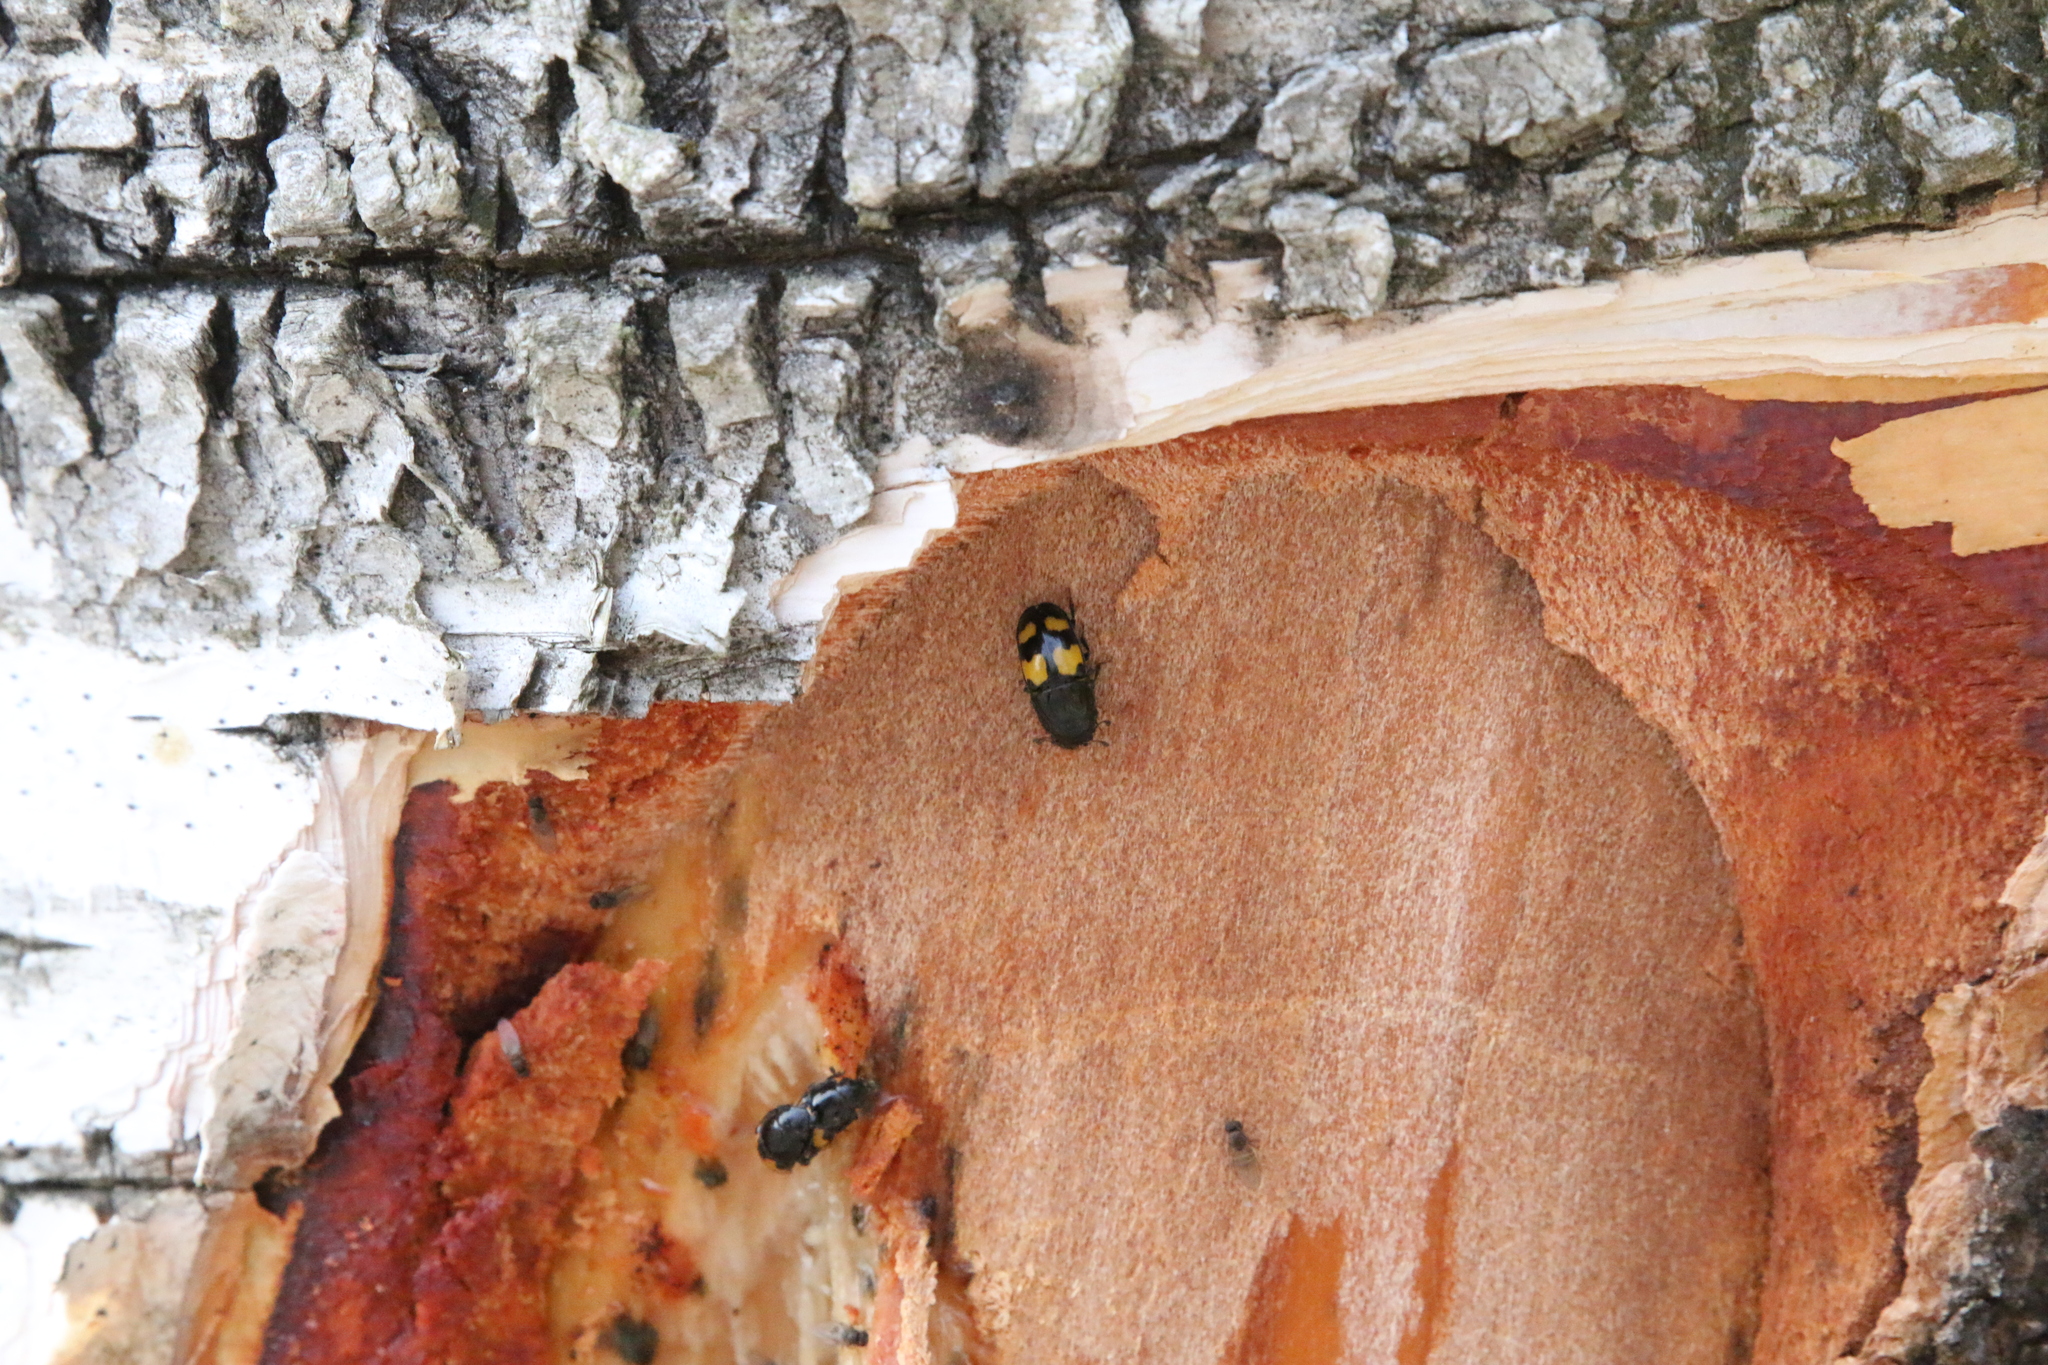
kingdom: Animalia
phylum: Arthropoda
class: Insecta
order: Coleoptera
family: Nitidulidae
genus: Glischrochilus
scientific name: Glischrochilus fasciatus
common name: Picnic beetle
